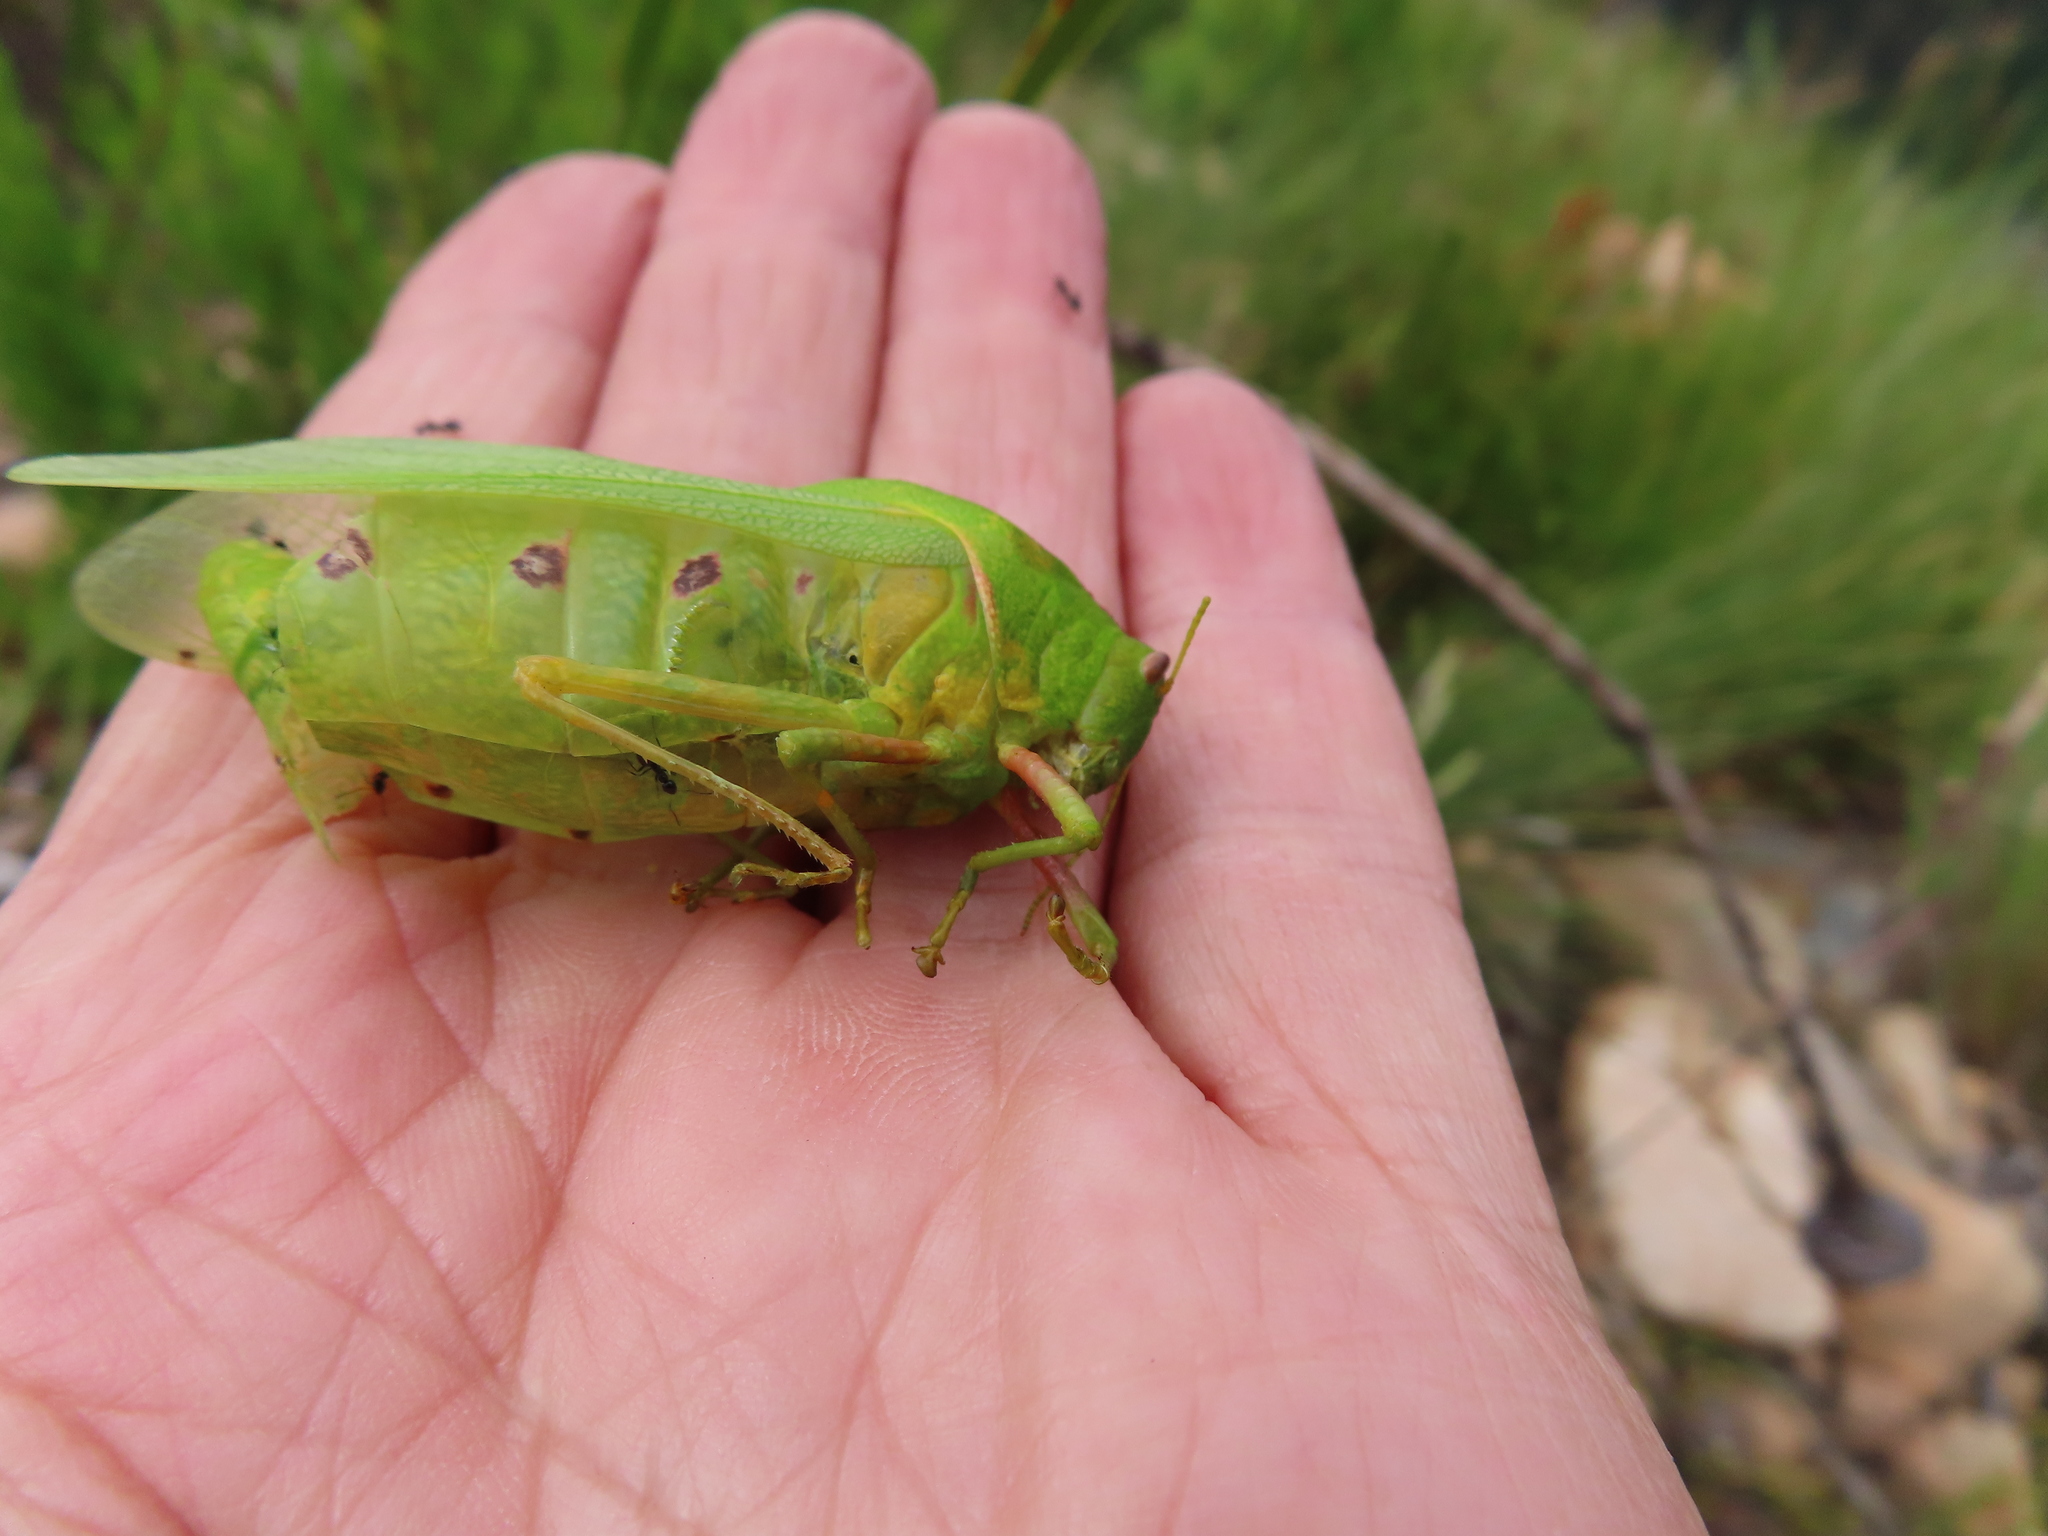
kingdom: Animalia
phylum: Arthropoda
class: Insecta
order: Orthoptera
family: Pneumoridae
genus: Bullacris
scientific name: Bullacris discolor
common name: Bladder grasshopper
